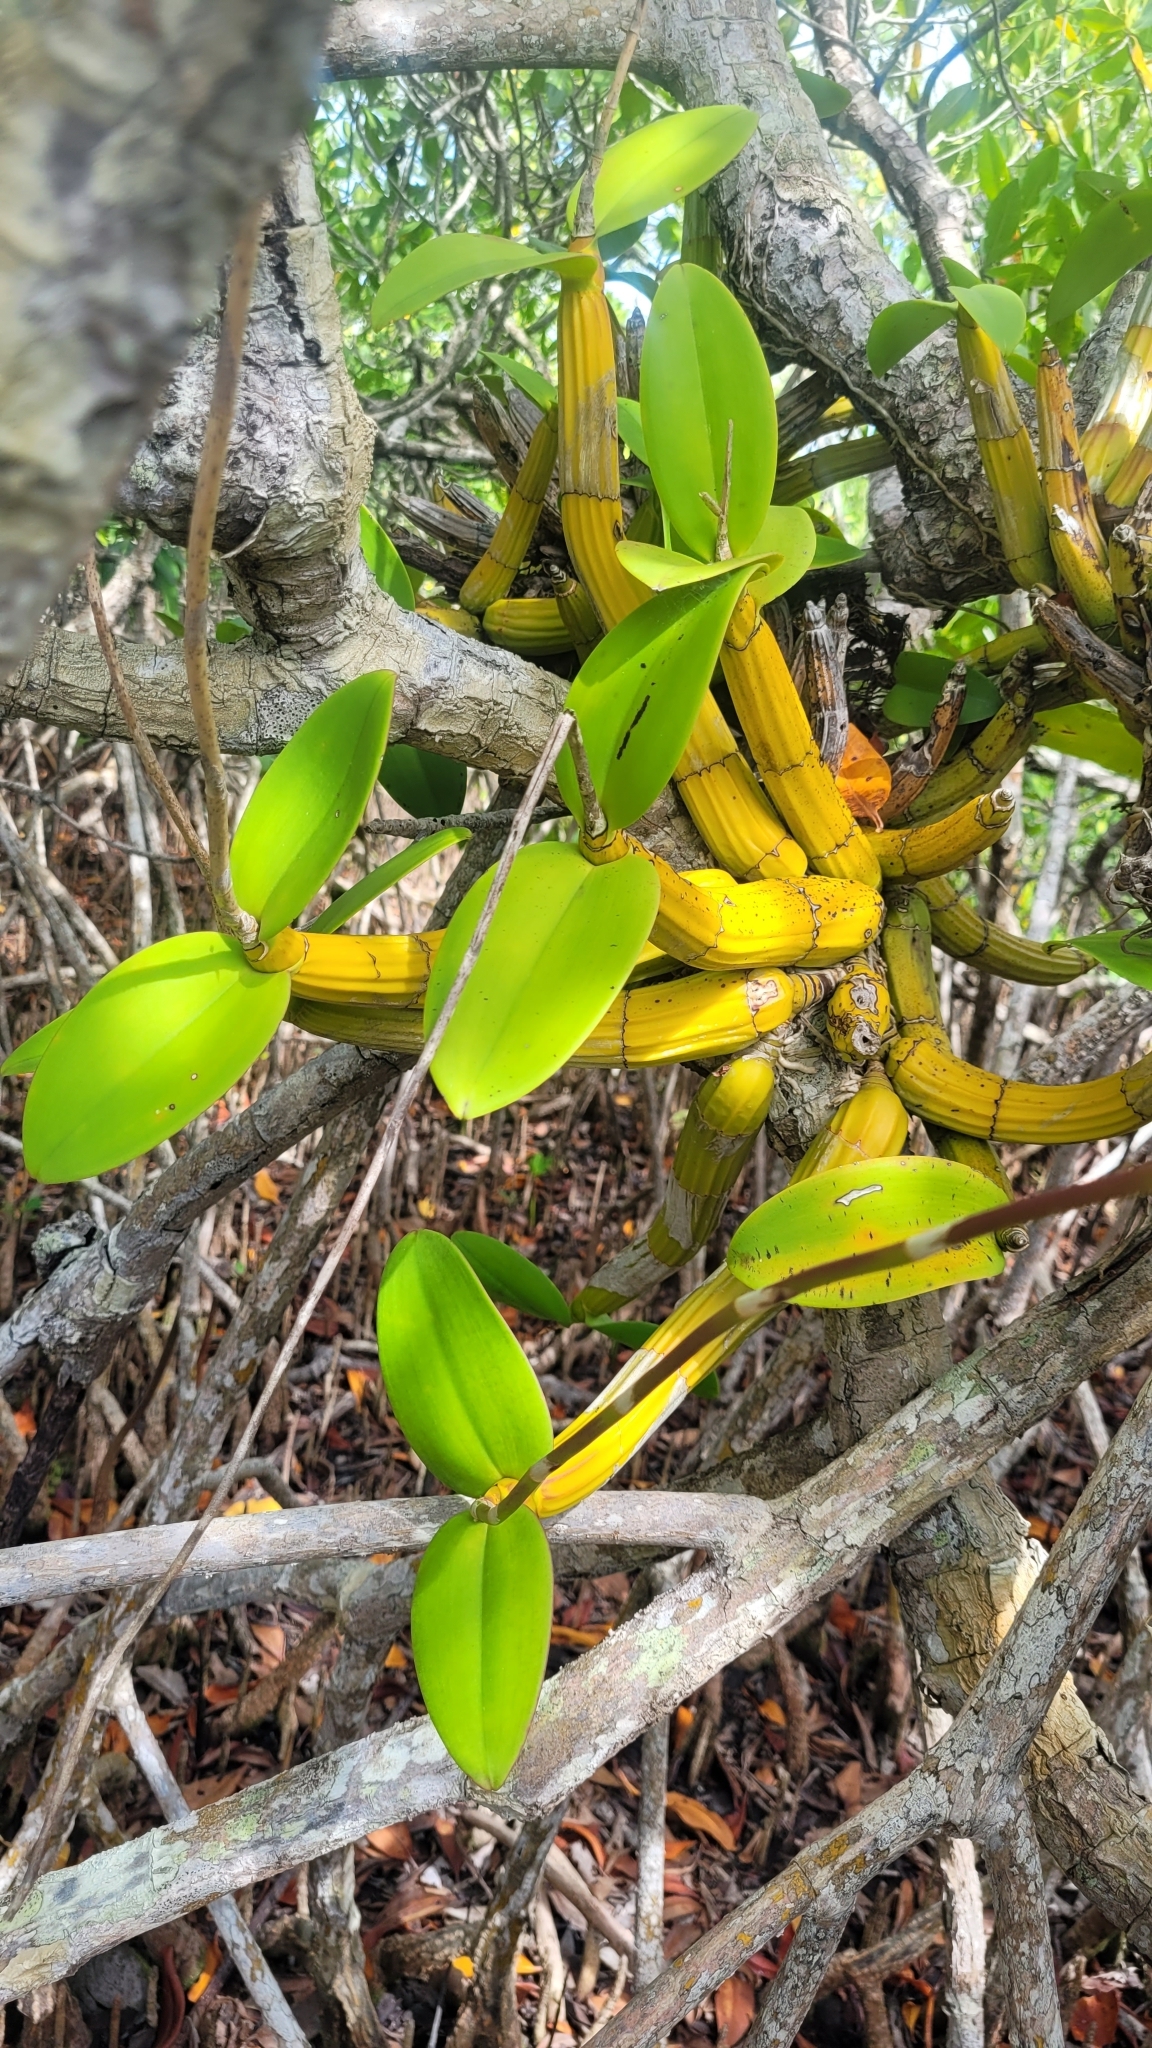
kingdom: Plantae
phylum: Tracheophyta
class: Liliopsida
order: Asparagales
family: Orchidaceae
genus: Myrmecophila
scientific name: Myrmecophila tibicinis
